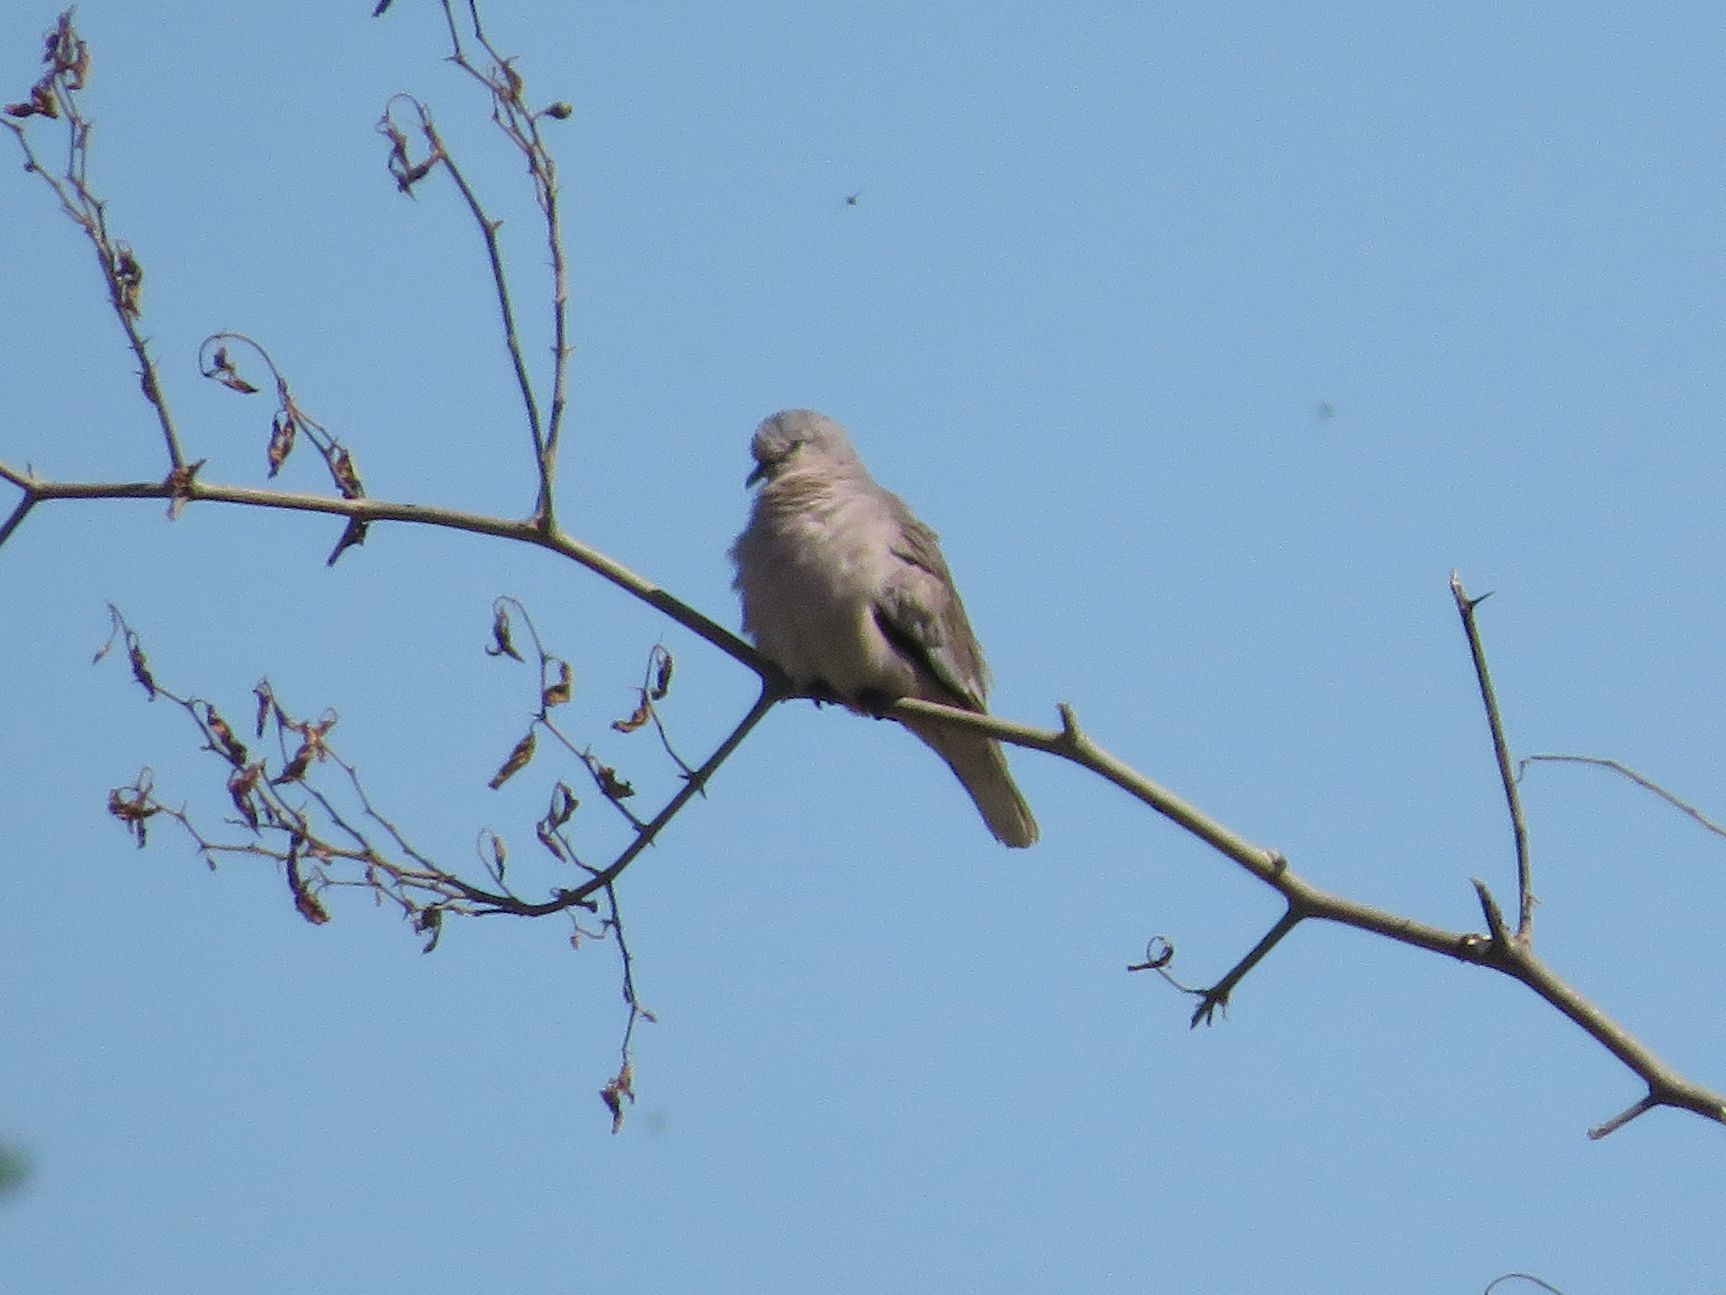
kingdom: Animalia
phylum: Chordata
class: Aves
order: Columbiformes
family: Columbidae
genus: Columbina
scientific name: Columbina picui
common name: Picui ground dove
